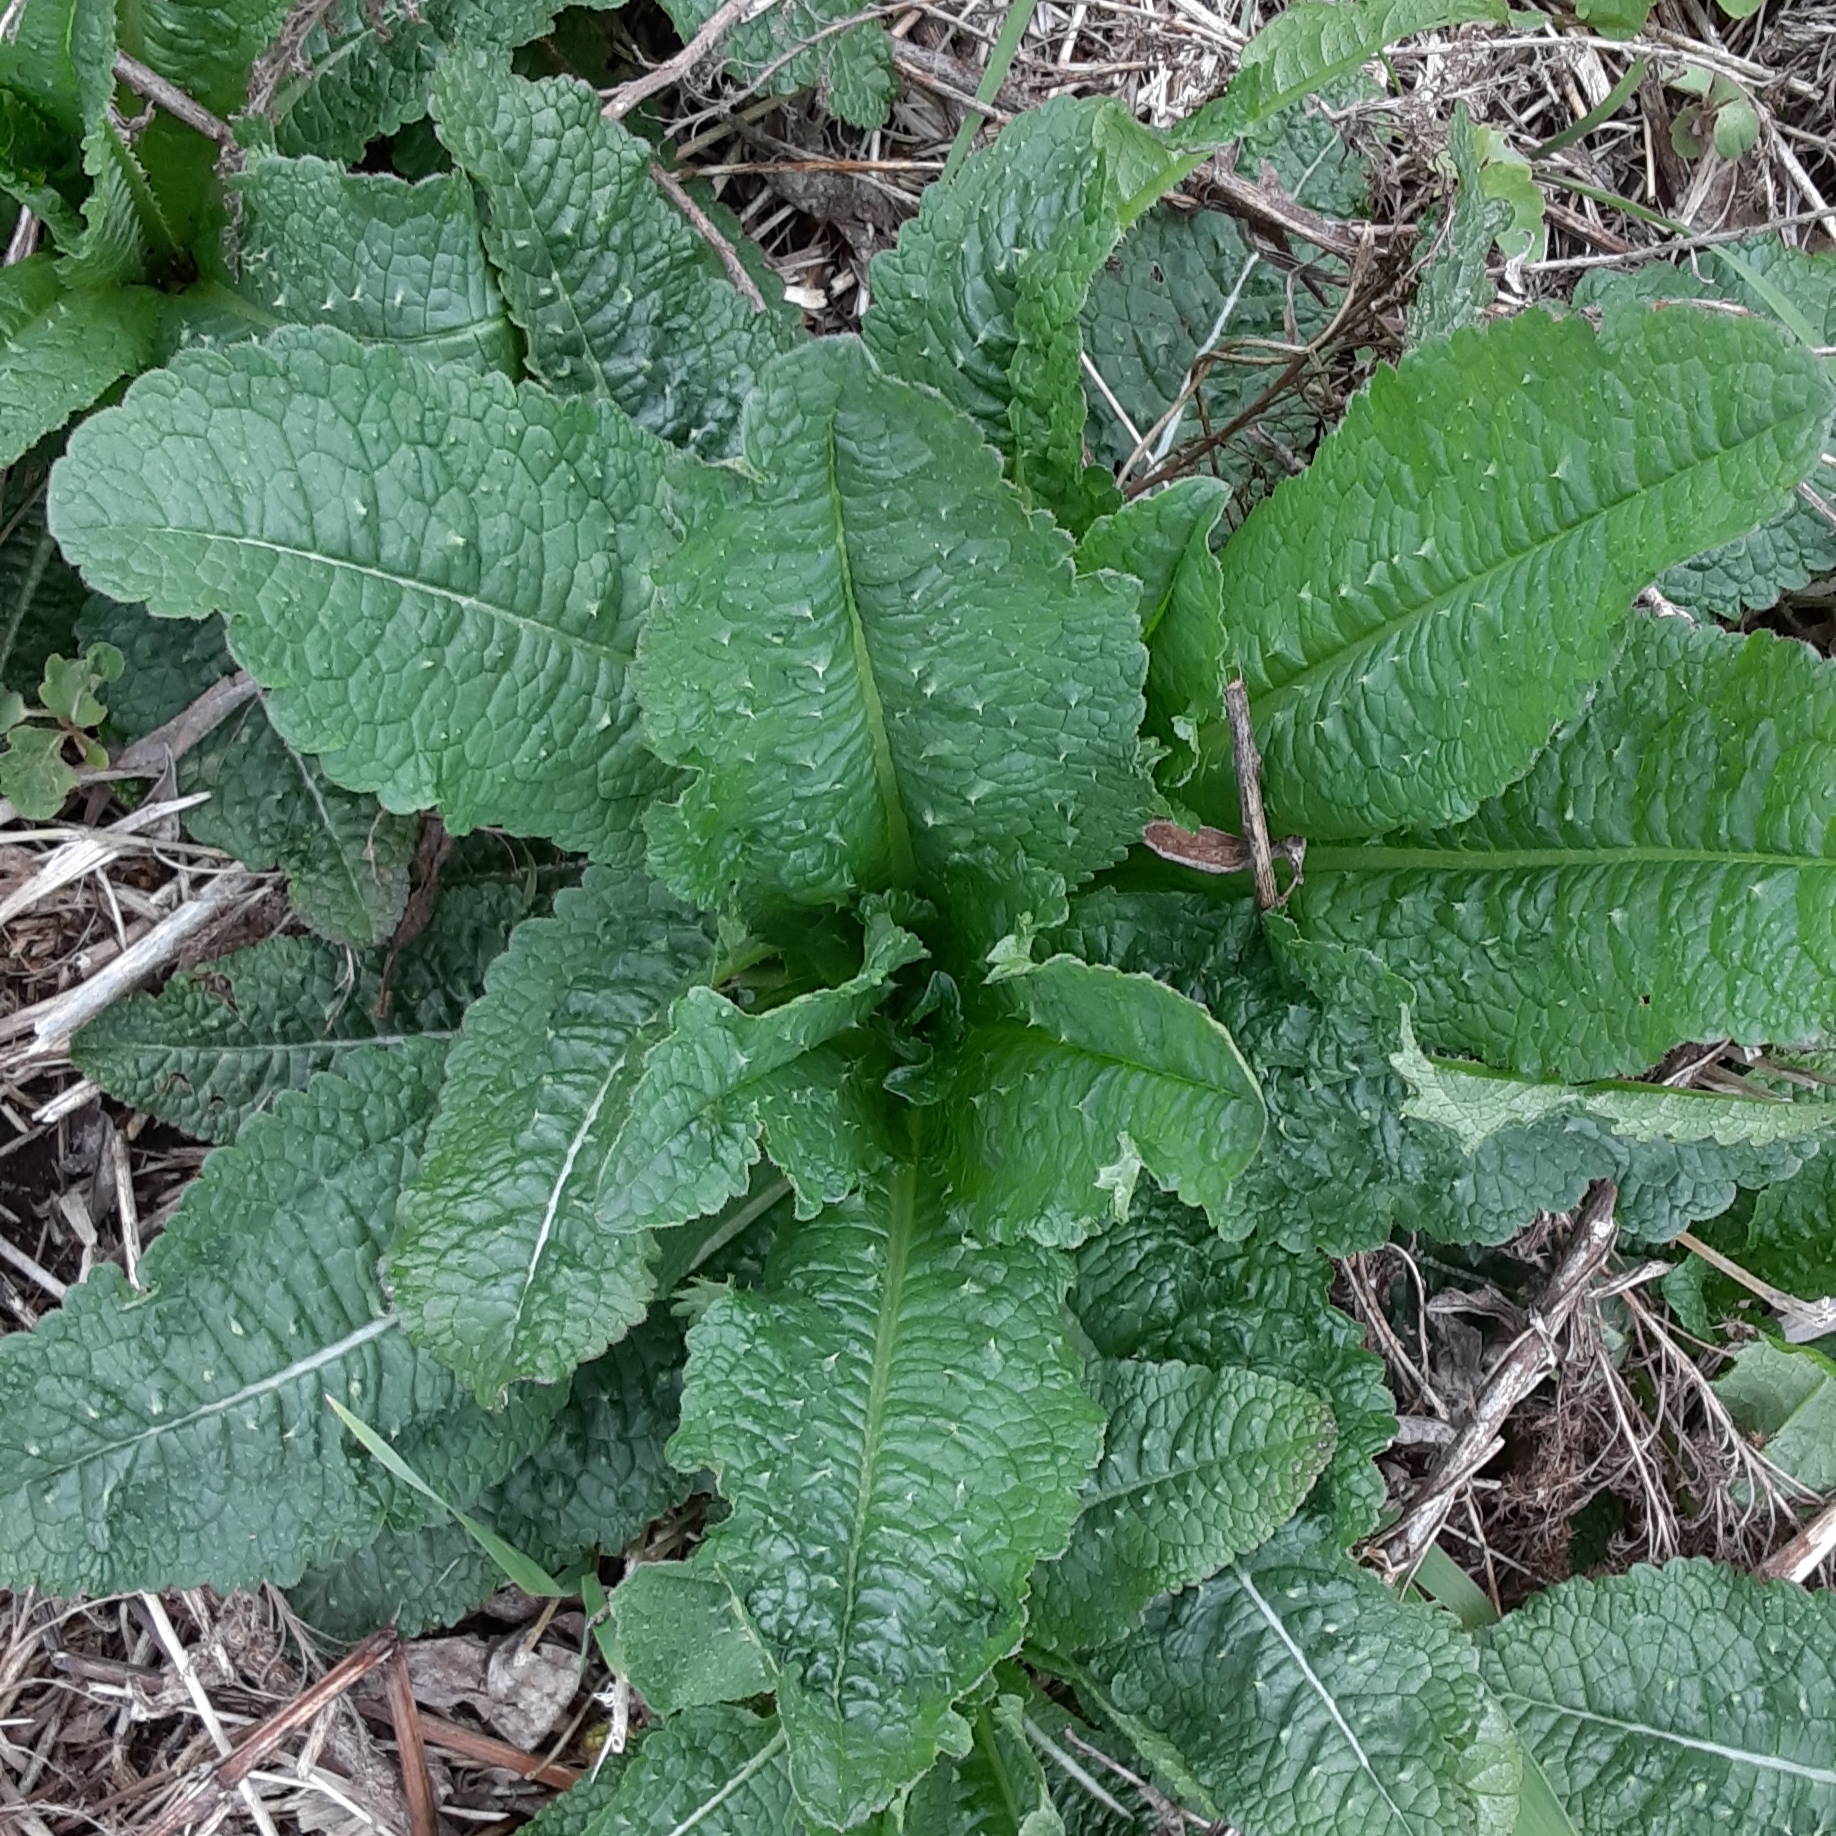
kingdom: Plantae
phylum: Tracheophyta
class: Magnoliopsida
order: Dipsacales
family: Caprifoliaceae
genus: Dipsacus
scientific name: Dipsacus fullonum
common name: Teasel
